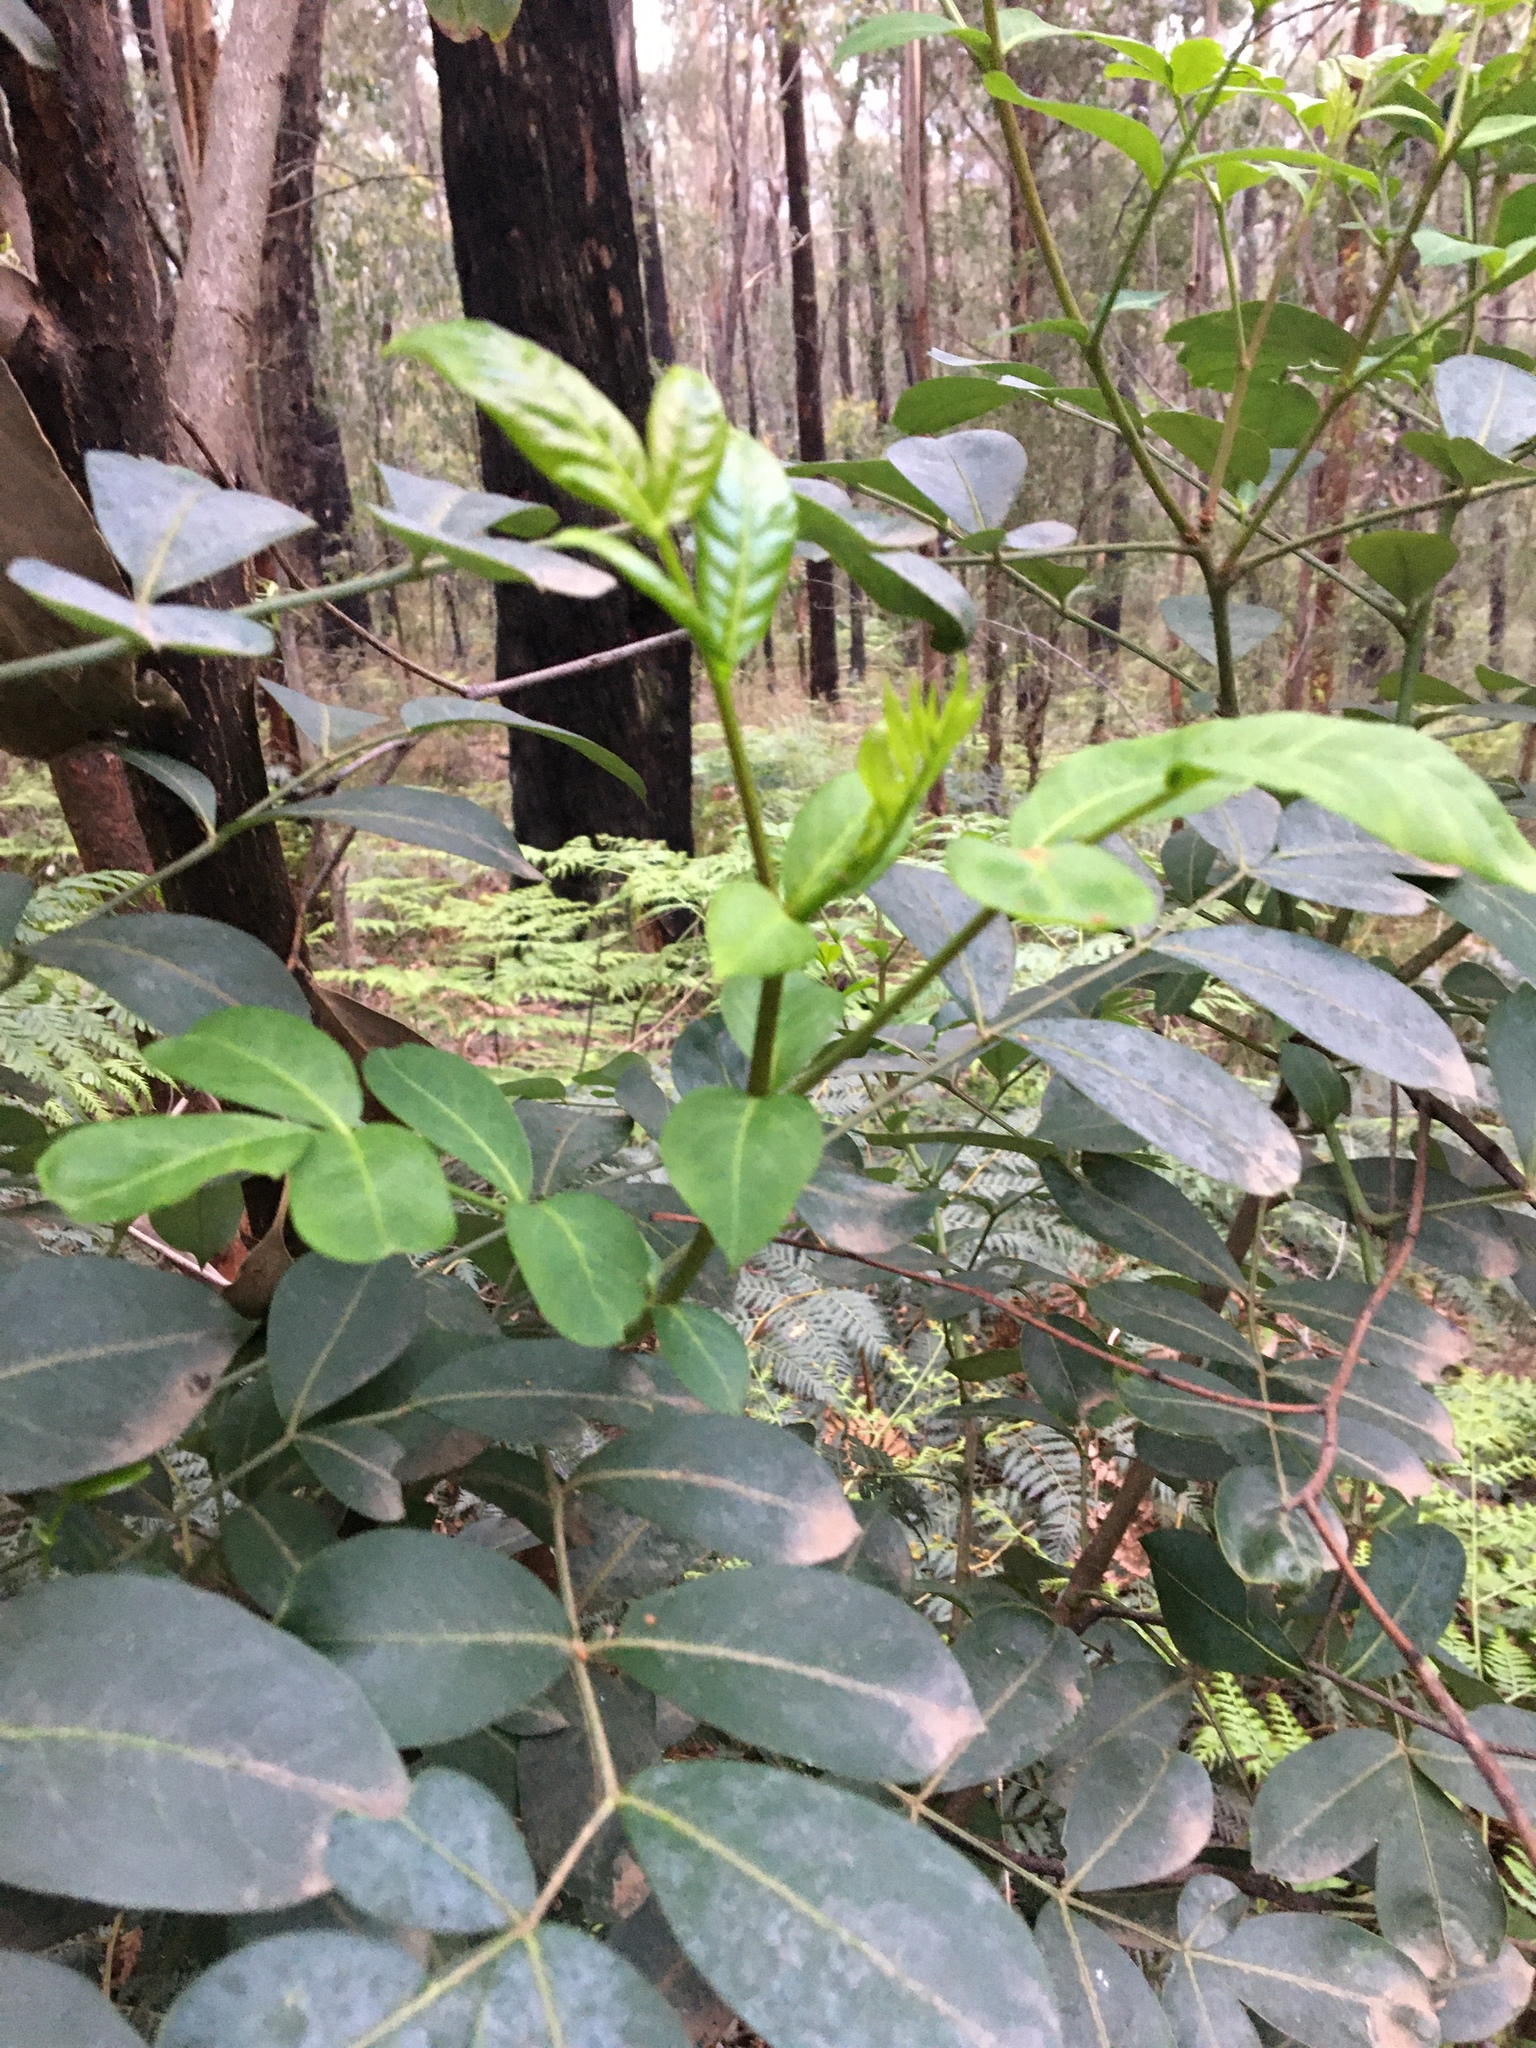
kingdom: Plantae
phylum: Tracheophyta
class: Magnoliopsida
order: Apiales
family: Araliaceae
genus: Polyscias
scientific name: Polyscias sambucifolia
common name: Elderberry-ash
